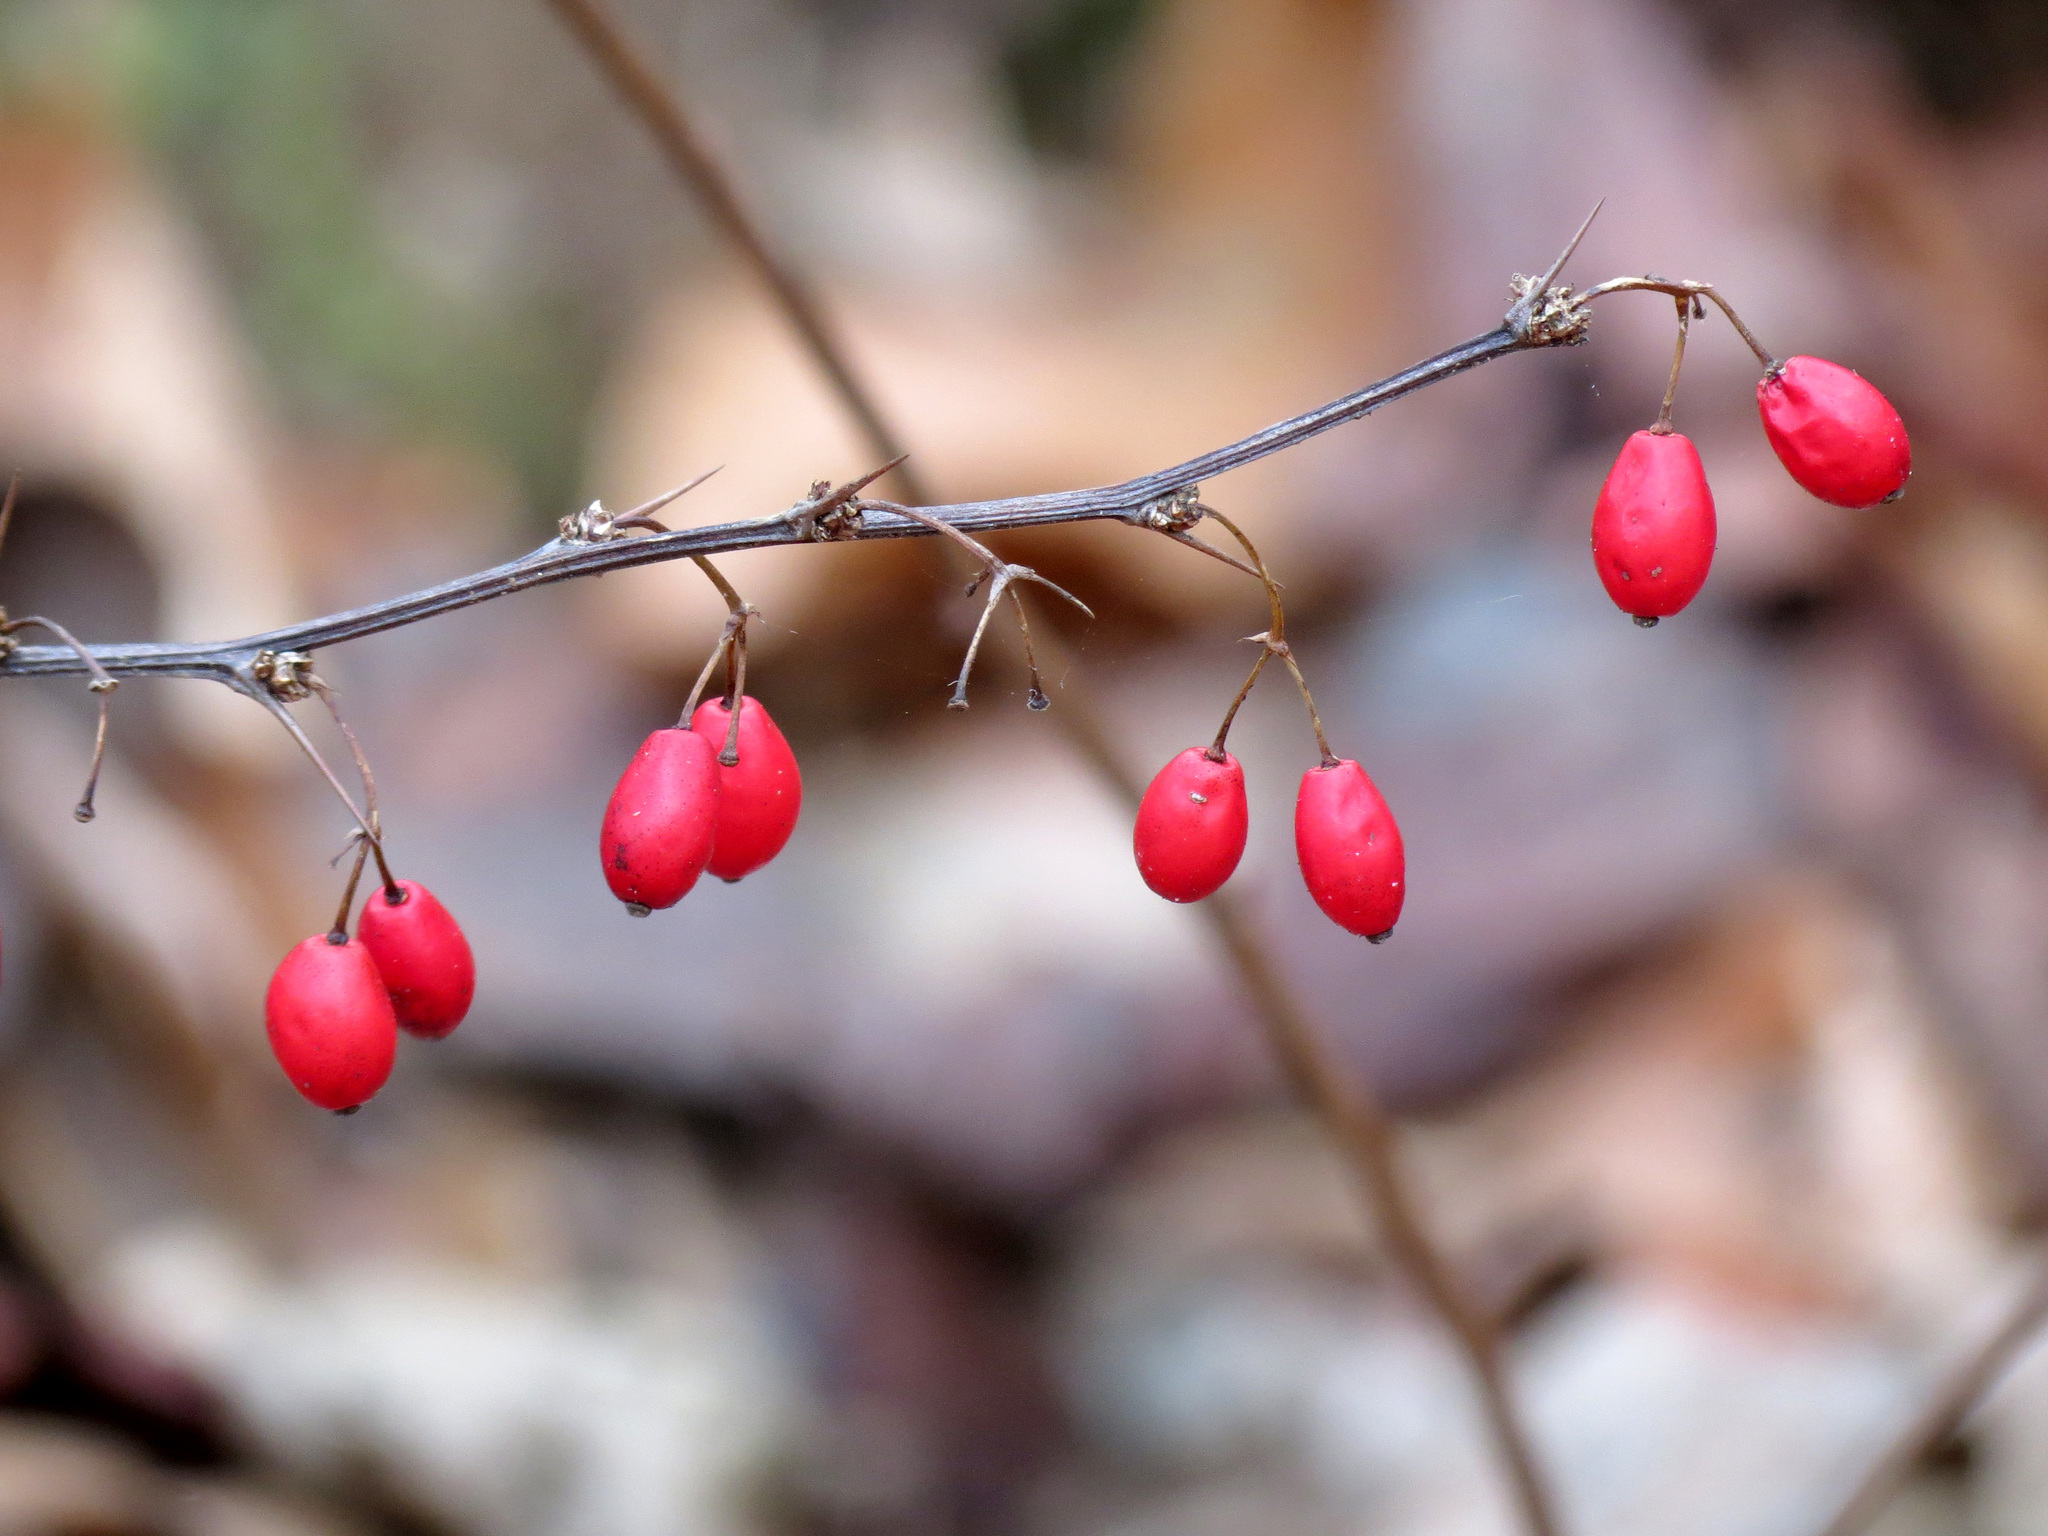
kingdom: Plantae
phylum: Tracheophyta
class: Magnoliopsida
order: Ranunculales
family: Berberidaceae
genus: Berberis
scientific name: Berberis thunbergii
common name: Japanese barberry
